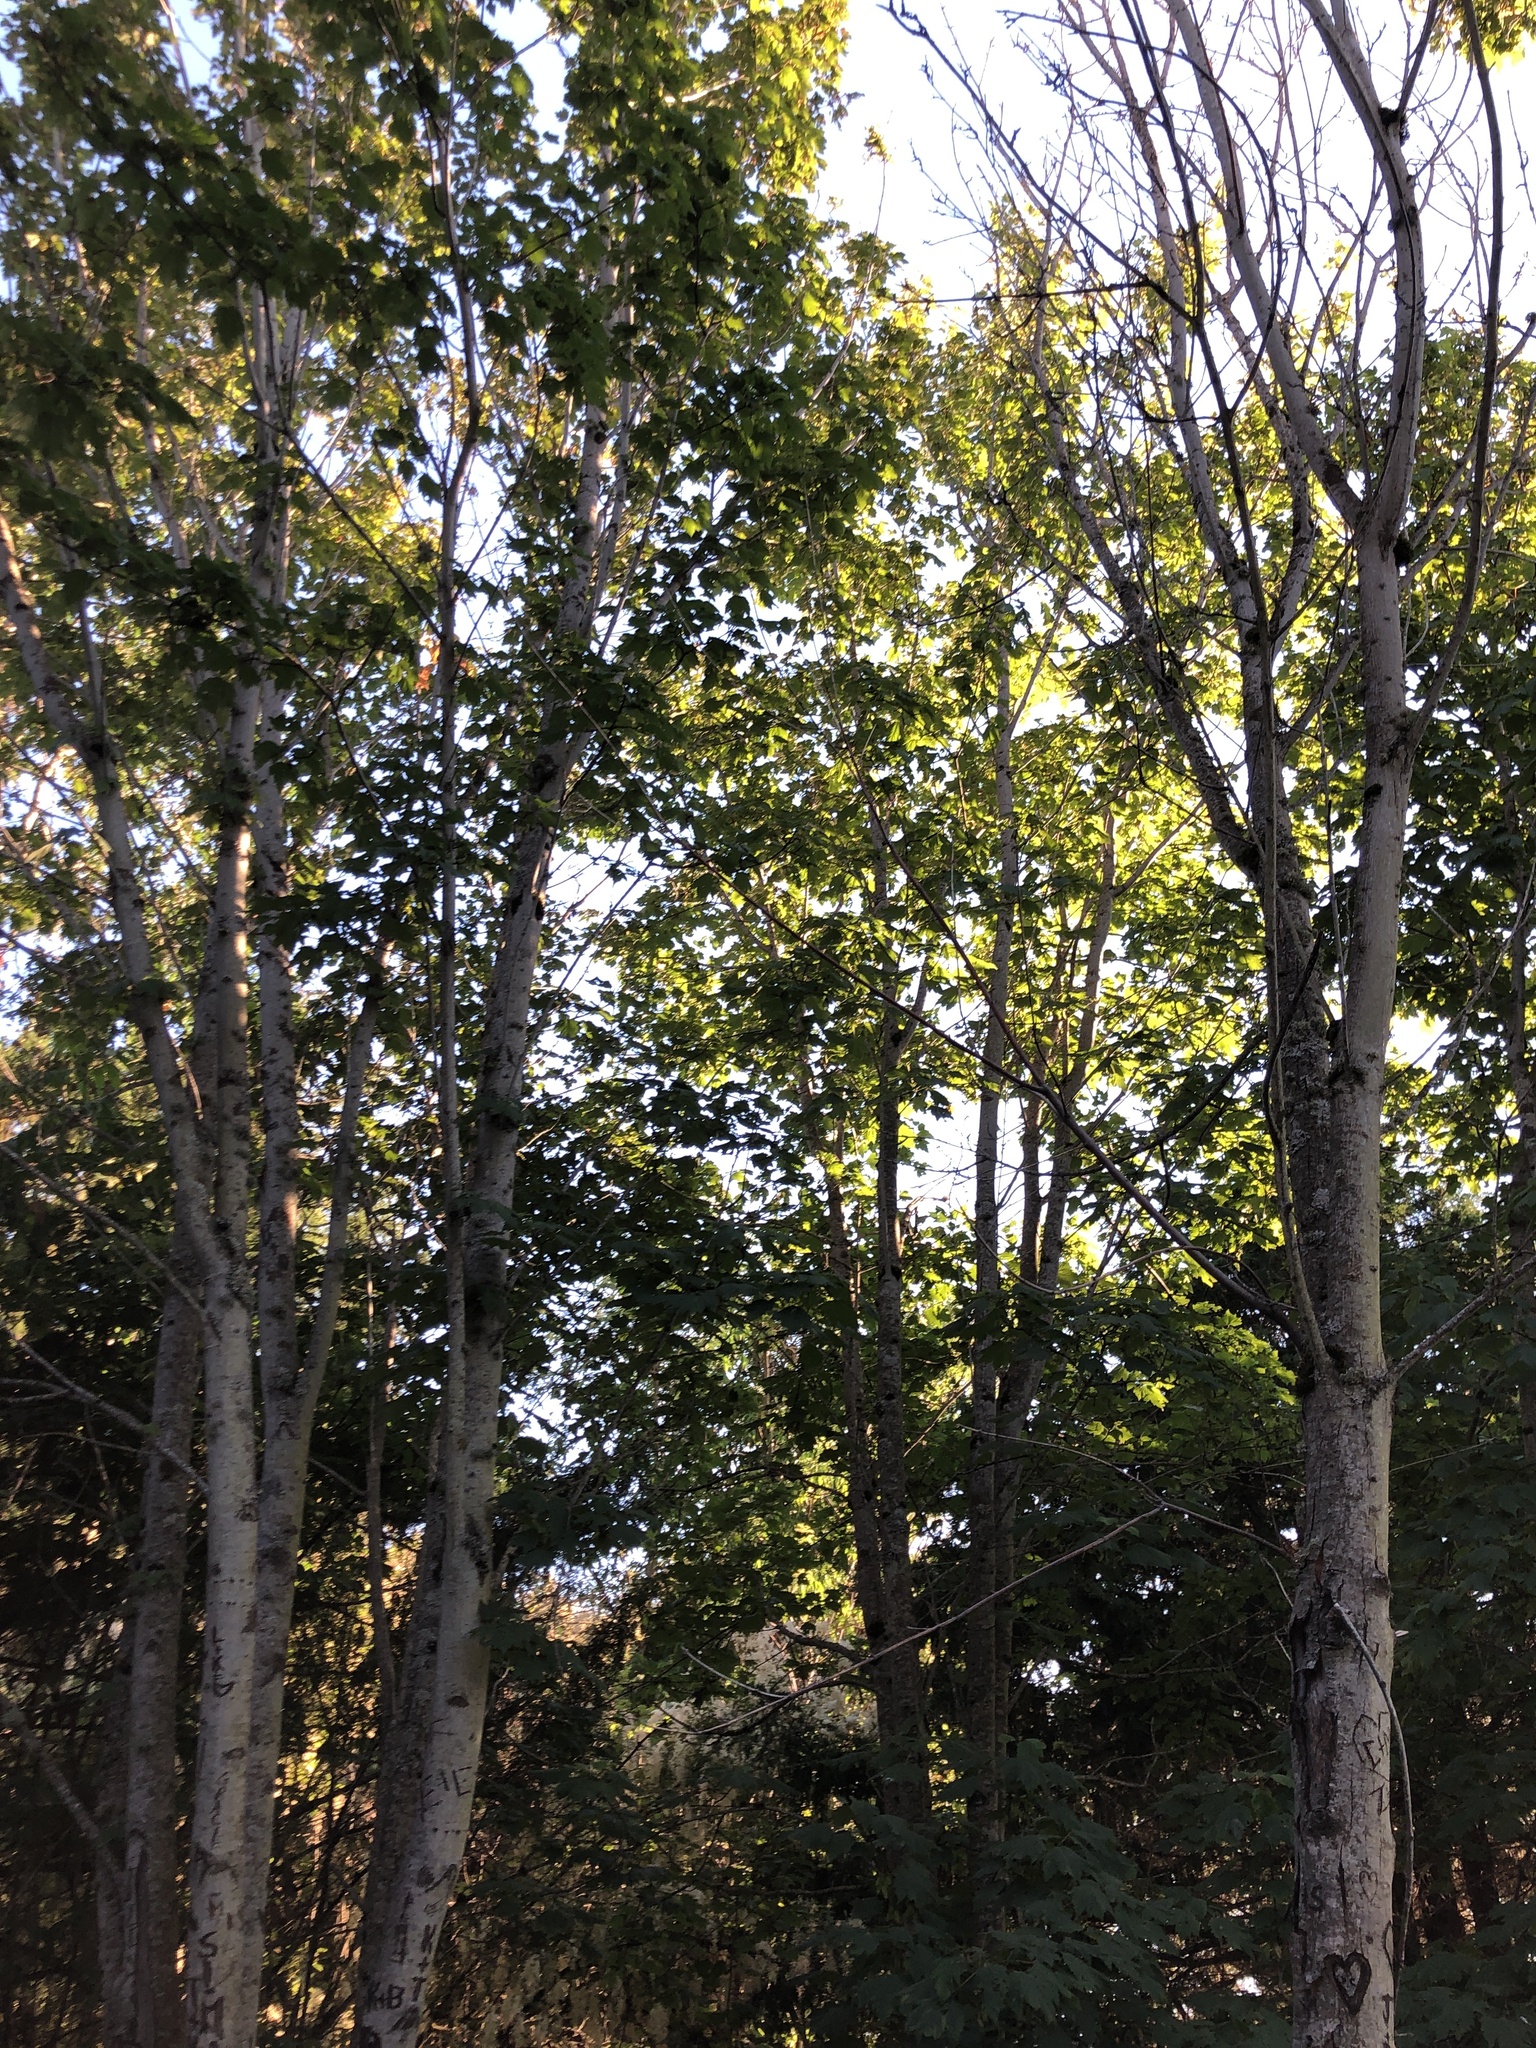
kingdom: Plantae
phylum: Tracheophyta
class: Magnoliopsida
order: Sapindales
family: Sapindaceae
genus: Acer
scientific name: Acer glabrum
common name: Rocky mountain maple
